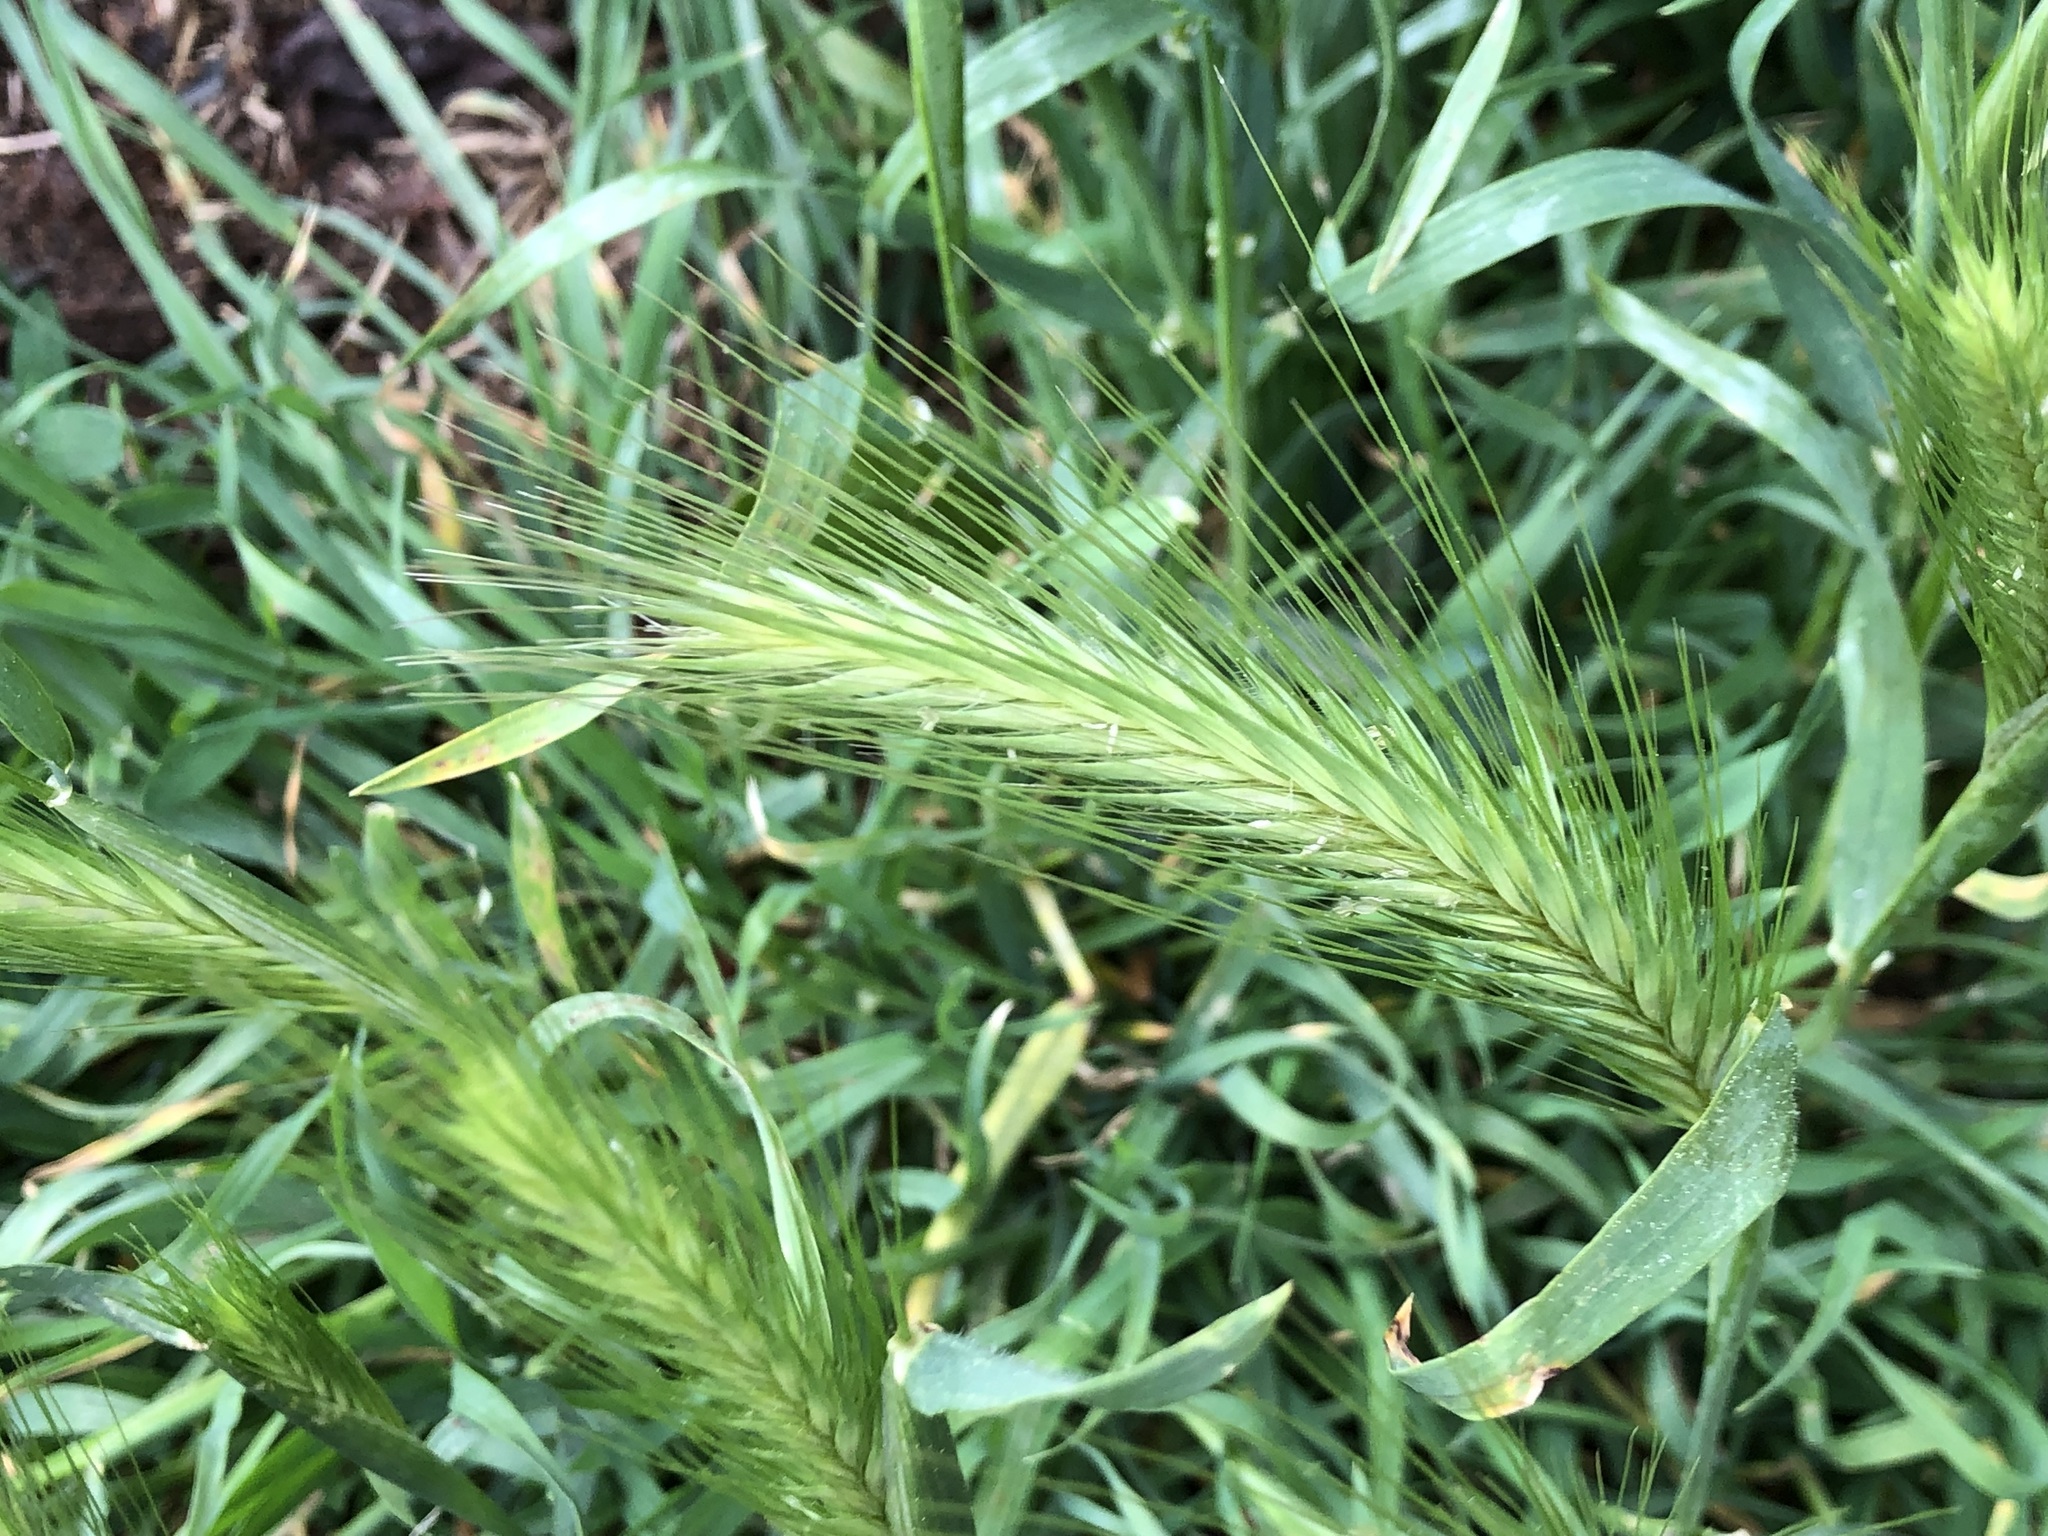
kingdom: Plantae
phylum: Tracheophyta
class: Liliopsida
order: Poales
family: Poaceae
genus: Hordeum
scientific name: Hordeum murinum
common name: Wall barley
